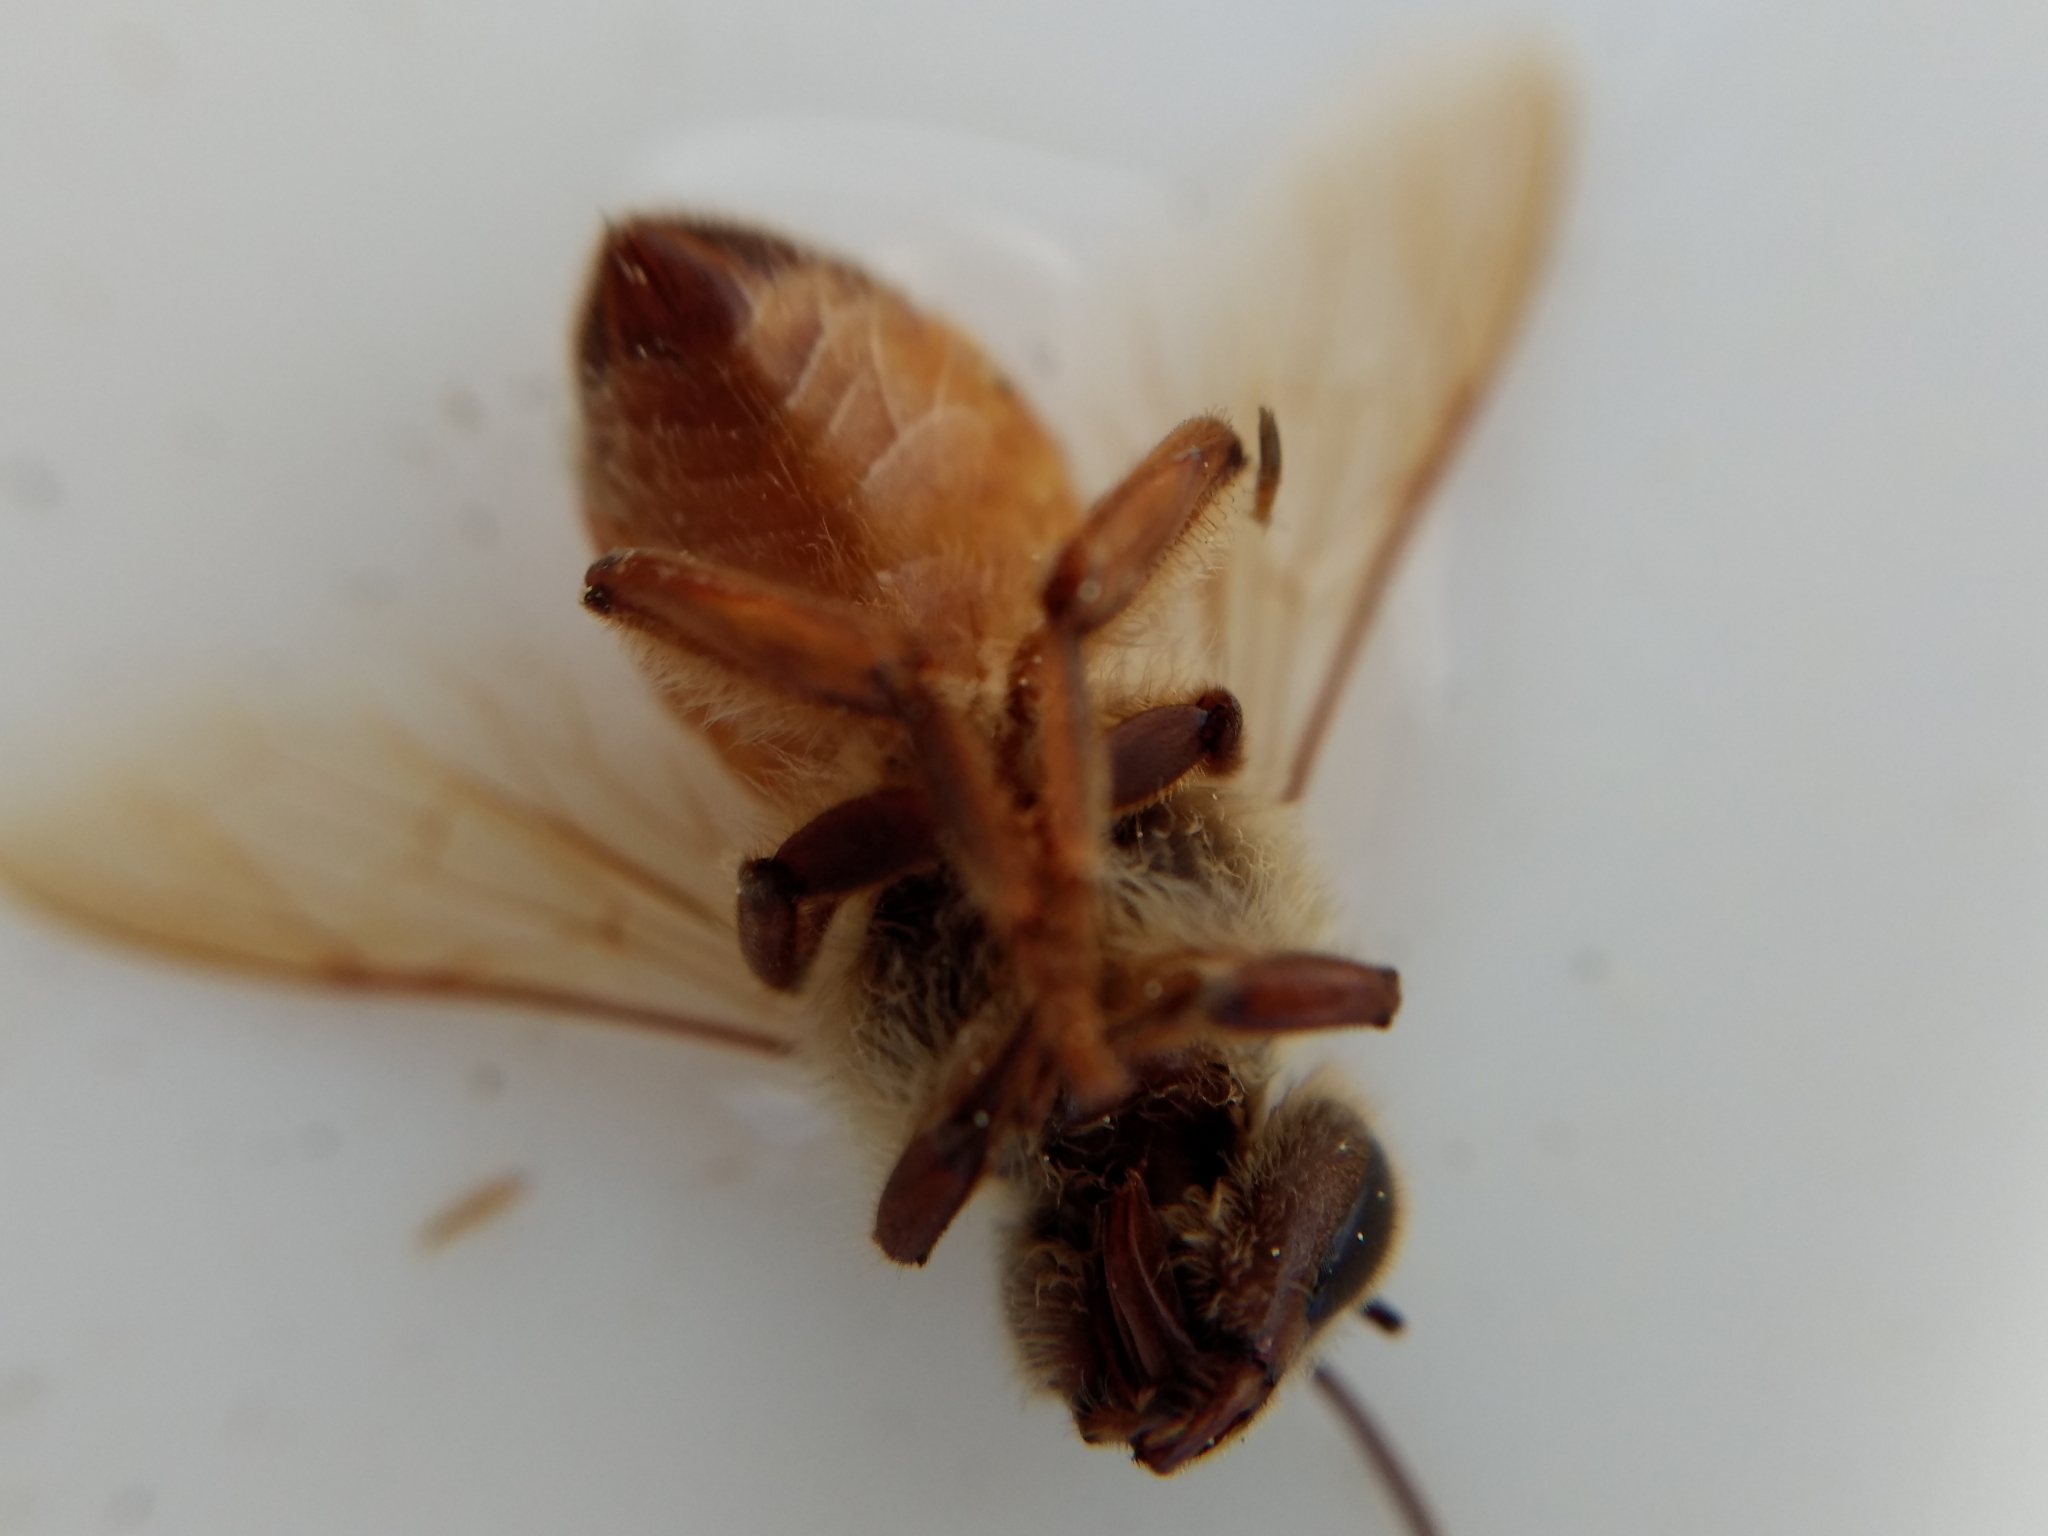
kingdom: Animalia
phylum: Arthropoda
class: Insecta
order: Hymenoptera
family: Apidae
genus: Apis
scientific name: Apis mellifera
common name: Honey bee
